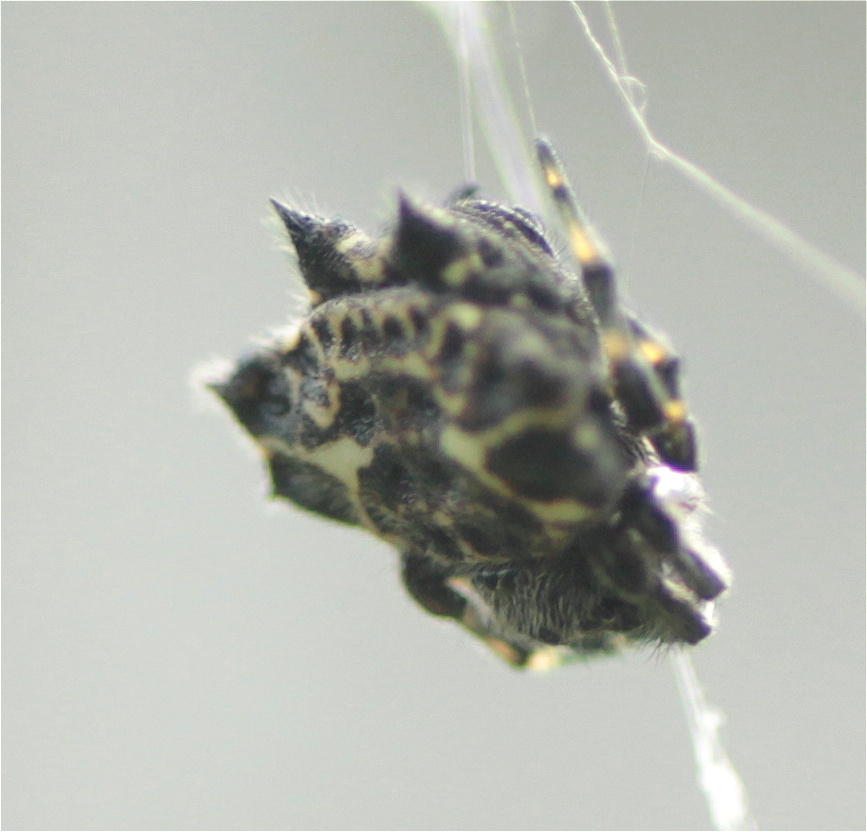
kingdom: Animalia
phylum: Arthropoda
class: Arachnida
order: Araneae
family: Araneidae
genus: Gasteracantha
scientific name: Gasteracantha cancriformis
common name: Orb weavers
